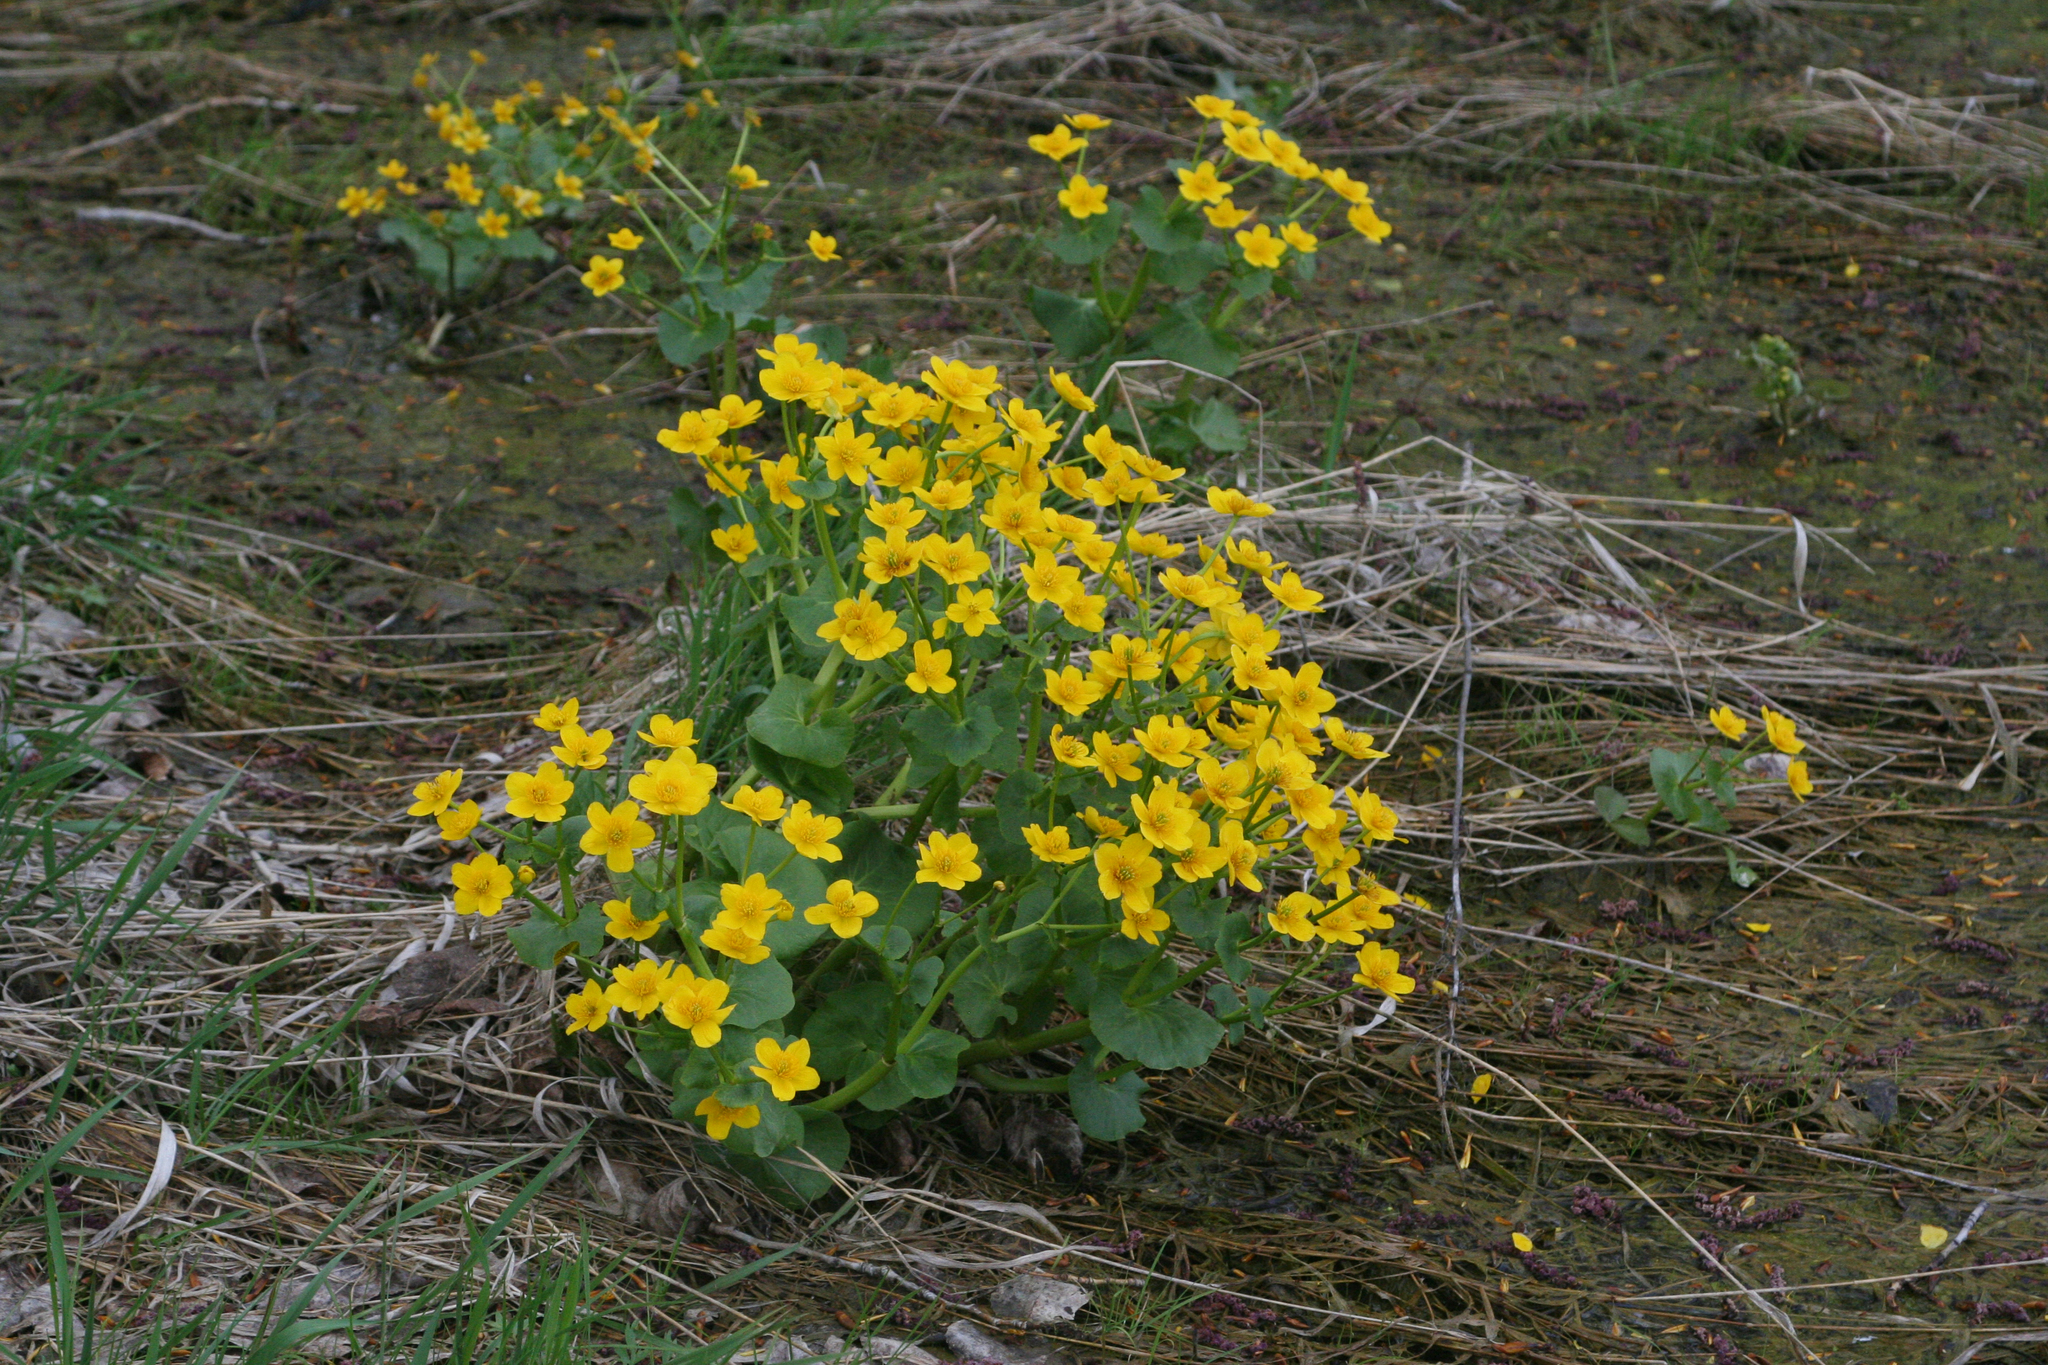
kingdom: Plantae
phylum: Tracheophyta
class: Magnoliopsida
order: Ranunculales
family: Ranunculaceae
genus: Caltha
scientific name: Caltha palustris
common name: Marsh marigold
